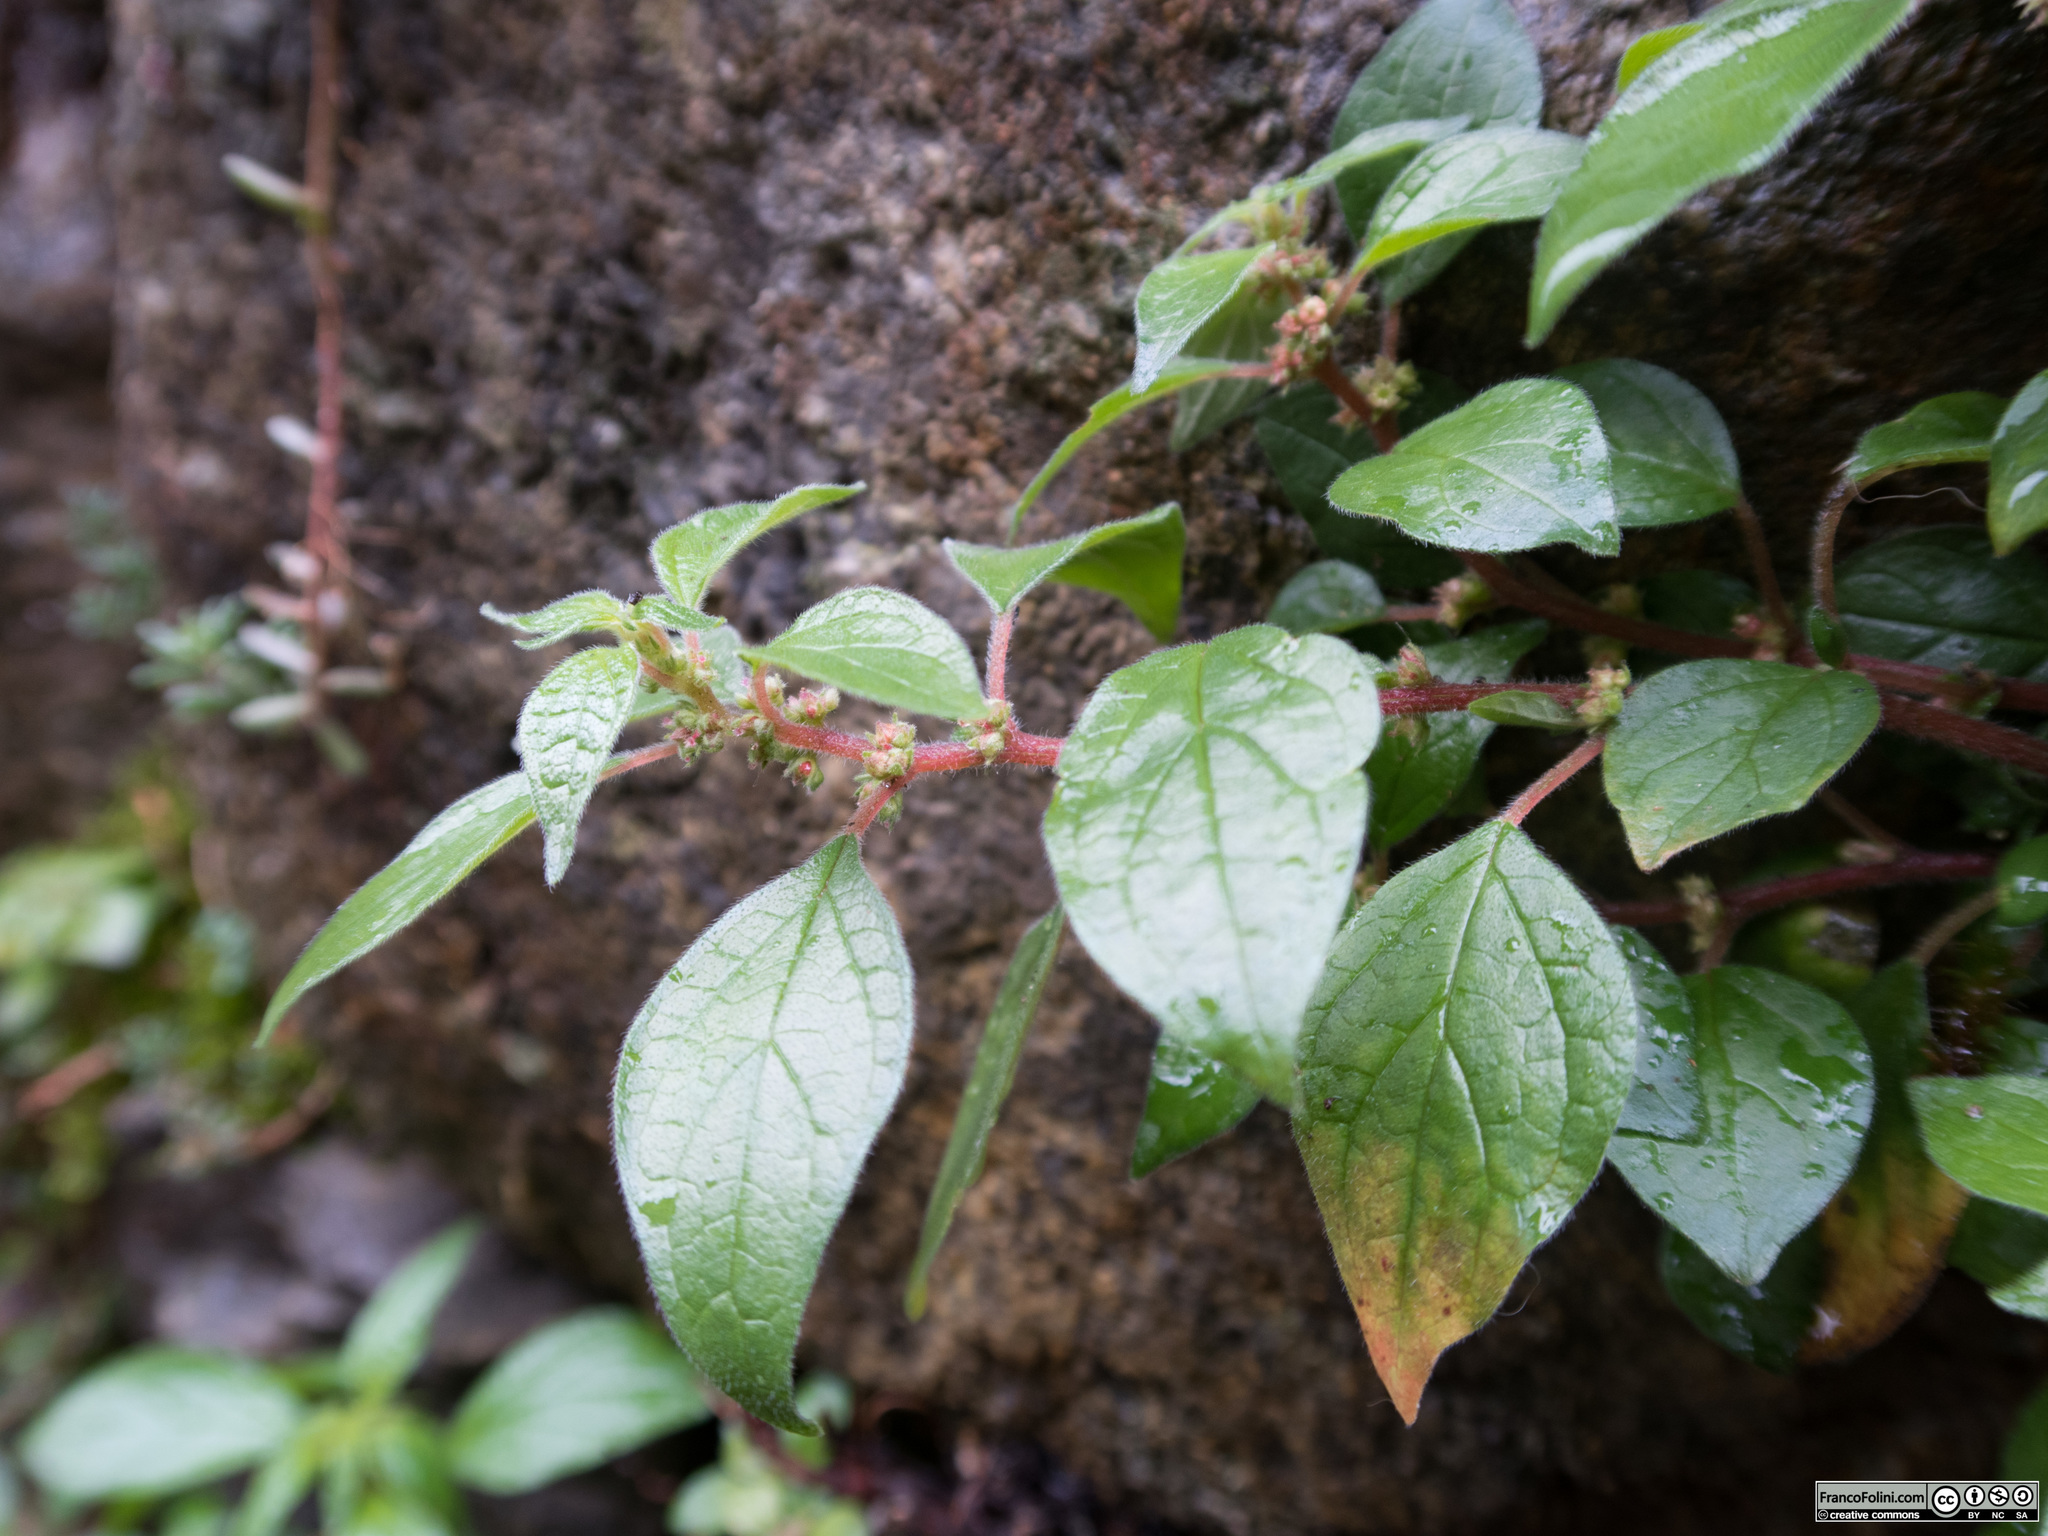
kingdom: Plantae
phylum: Tracheophyta
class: Magnoliopsida
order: Rosales
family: Urticaceae
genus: Parietaria
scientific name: Parietaria judaica
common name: Pellitory-of-the-wall
